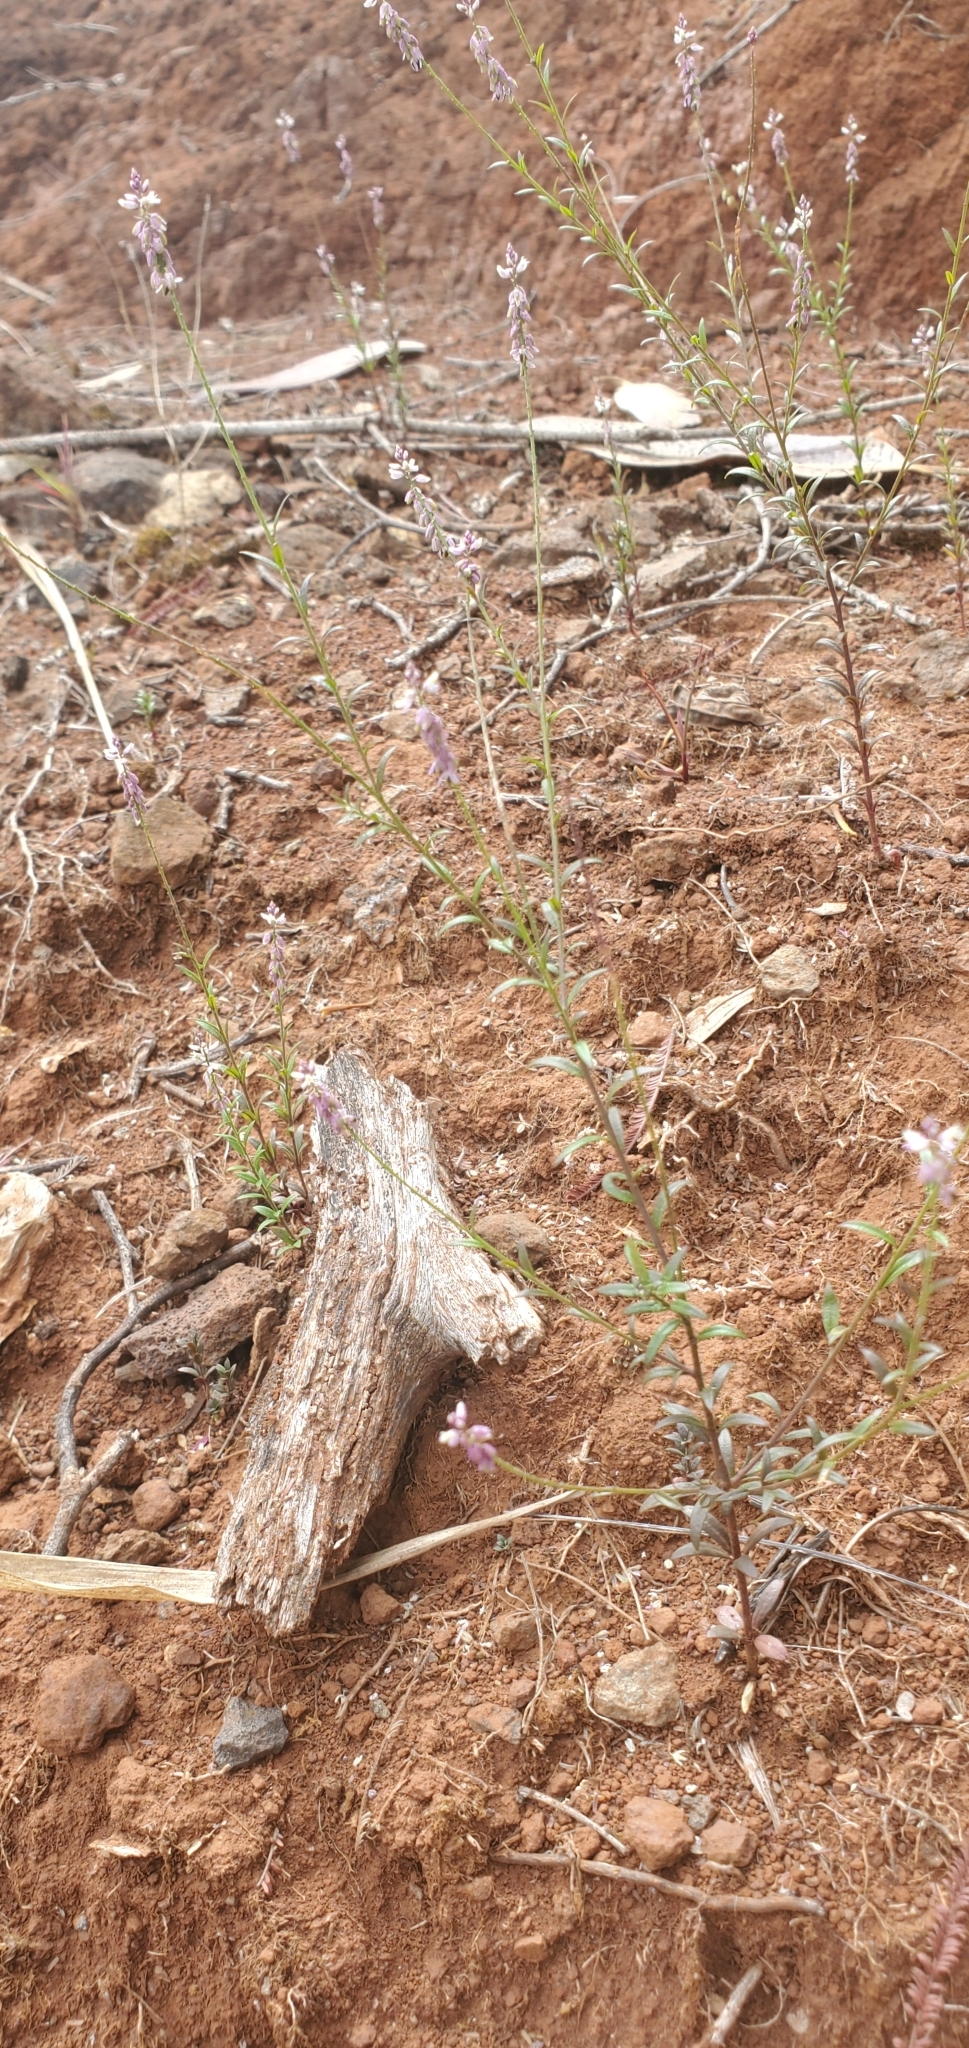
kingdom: Plantae
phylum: Tracheophyta
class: Magnoliopsida
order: Fabales
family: Polygalaceae
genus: Polygala
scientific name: Polygala paniculata
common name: Orosne
